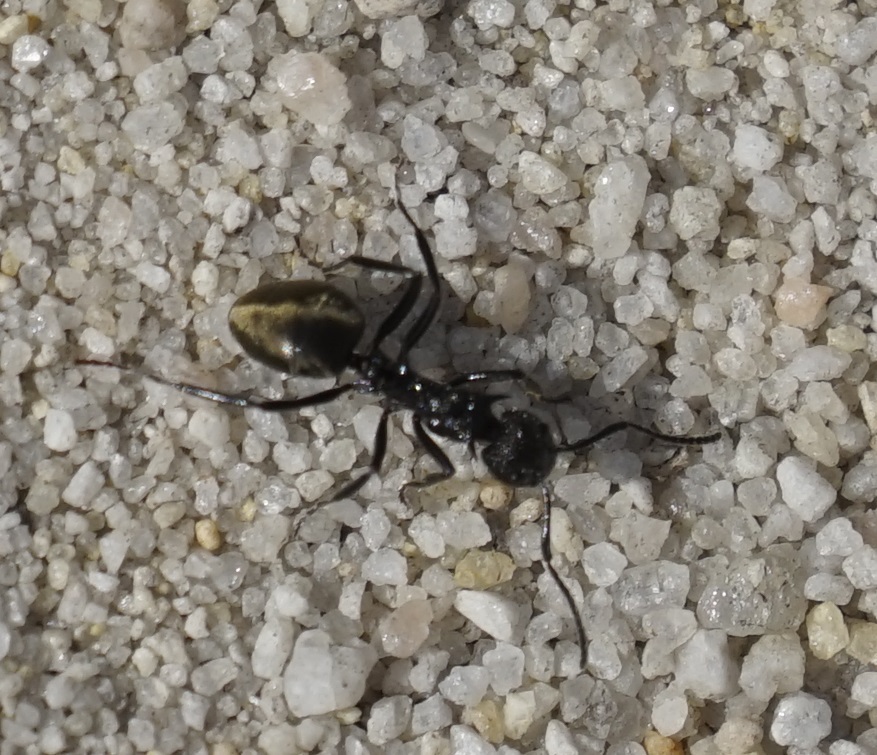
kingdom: Animalia
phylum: Arthropoda
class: Insecta
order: Hymenoptera
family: Formicidae
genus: Dolichoderus
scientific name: Dolichoderus clarki
